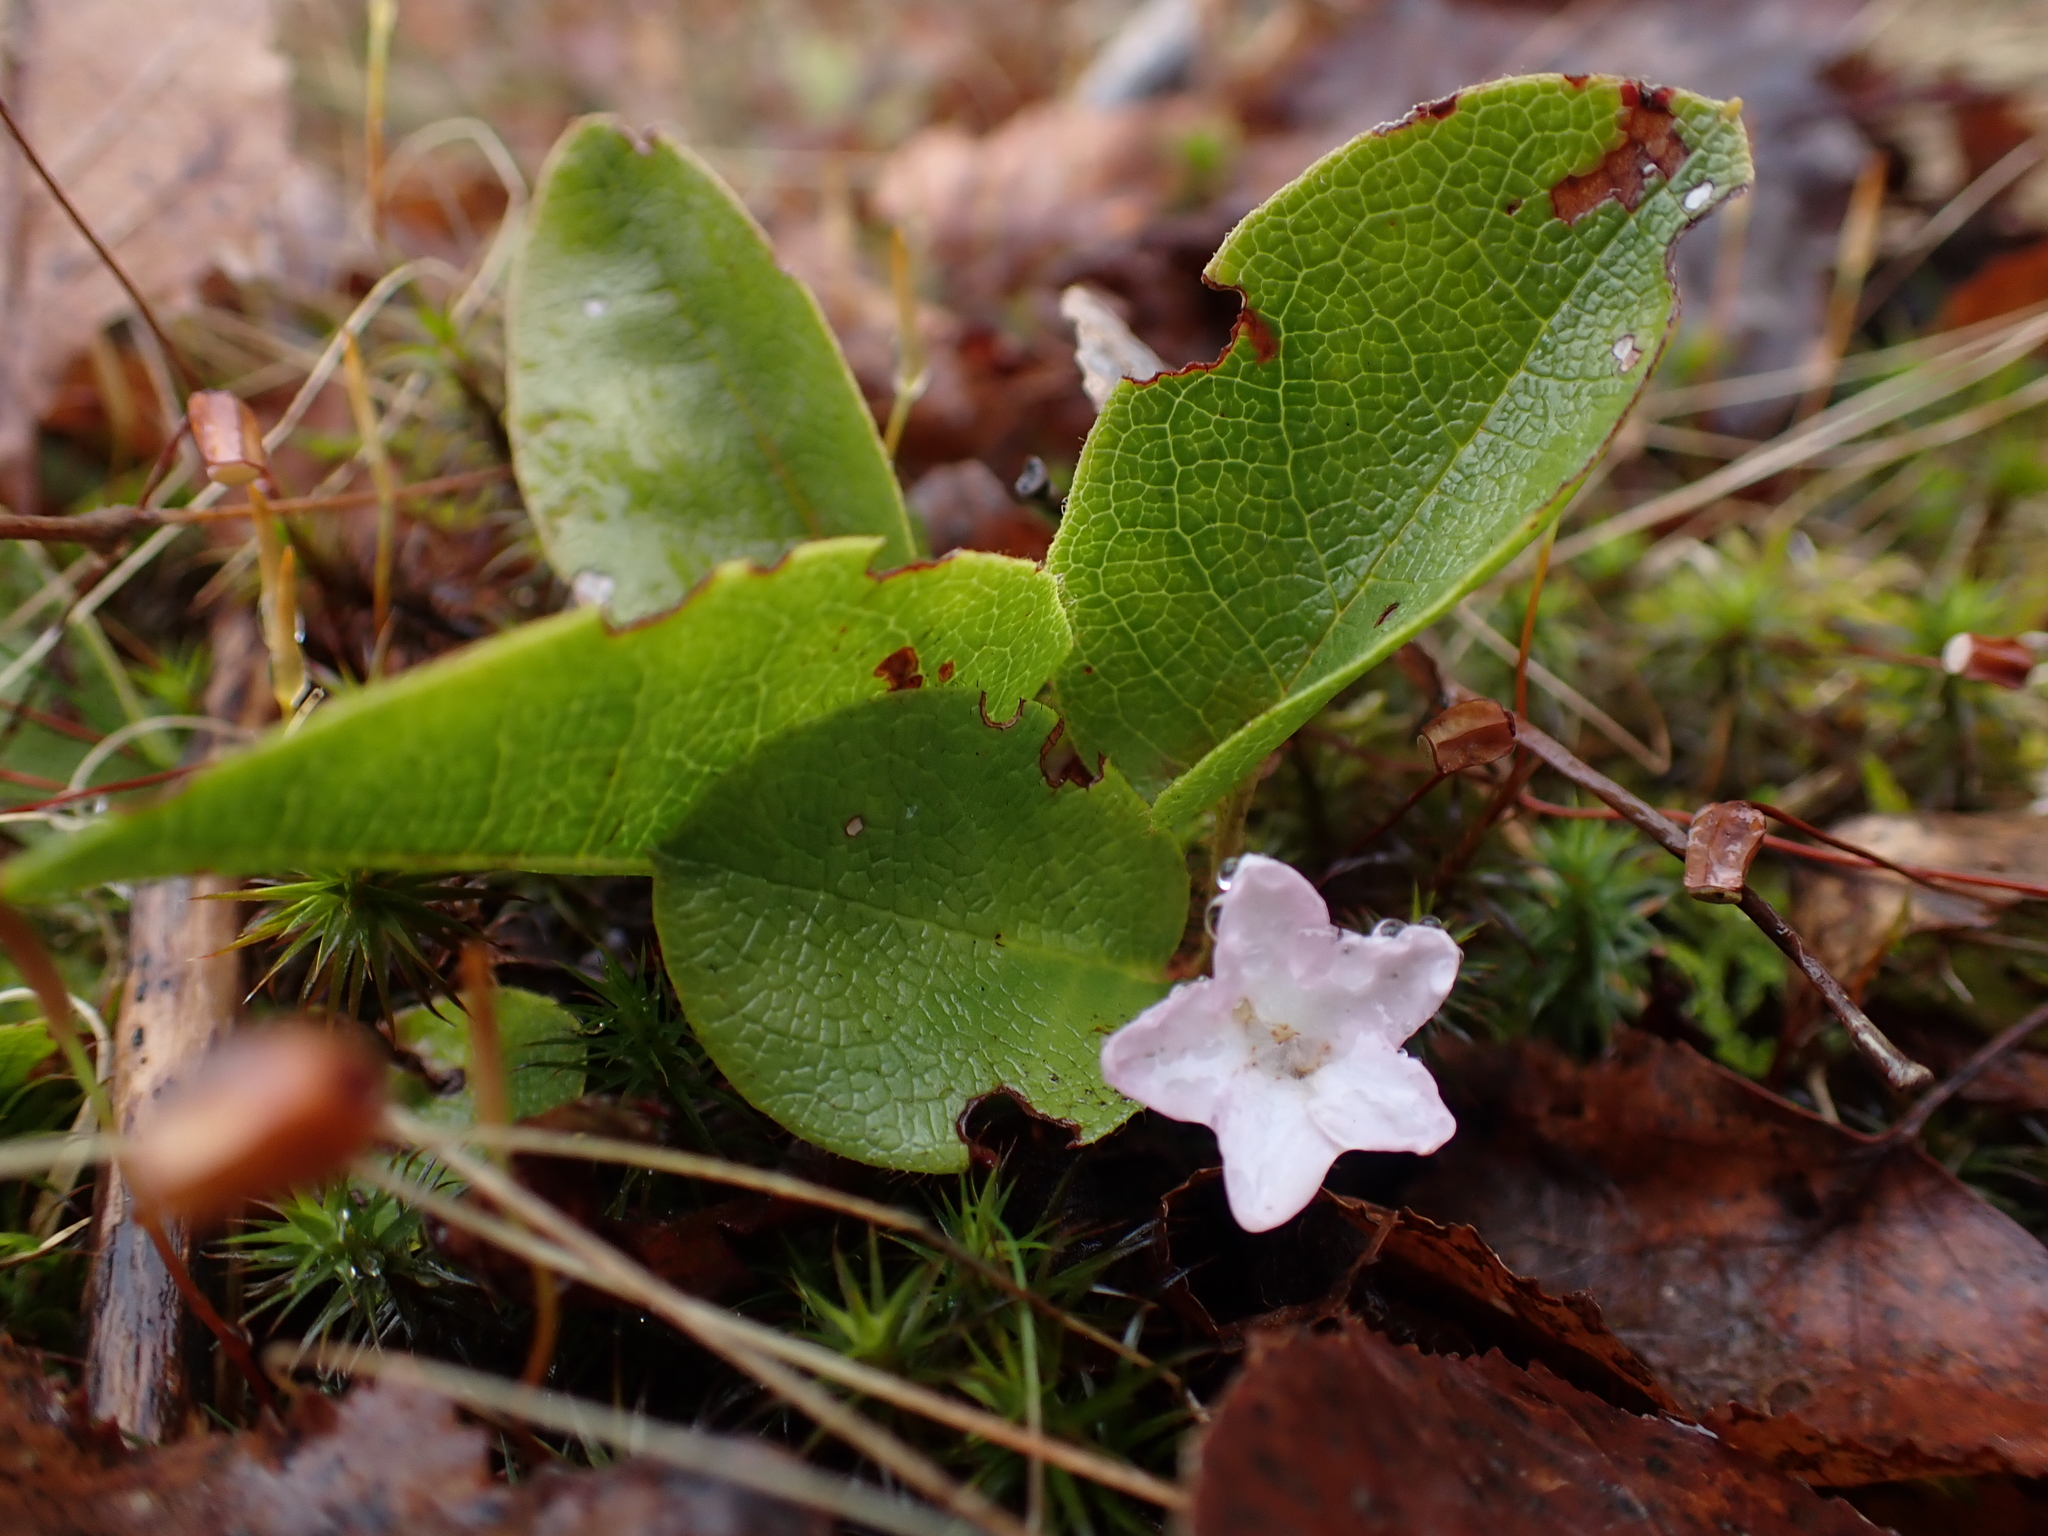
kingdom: Plantae
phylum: Tracheophyta
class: Magnoliopsida
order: Ericales
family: Ericaceae
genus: Epigaea
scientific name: Epigaea repens
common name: Gravelroot
